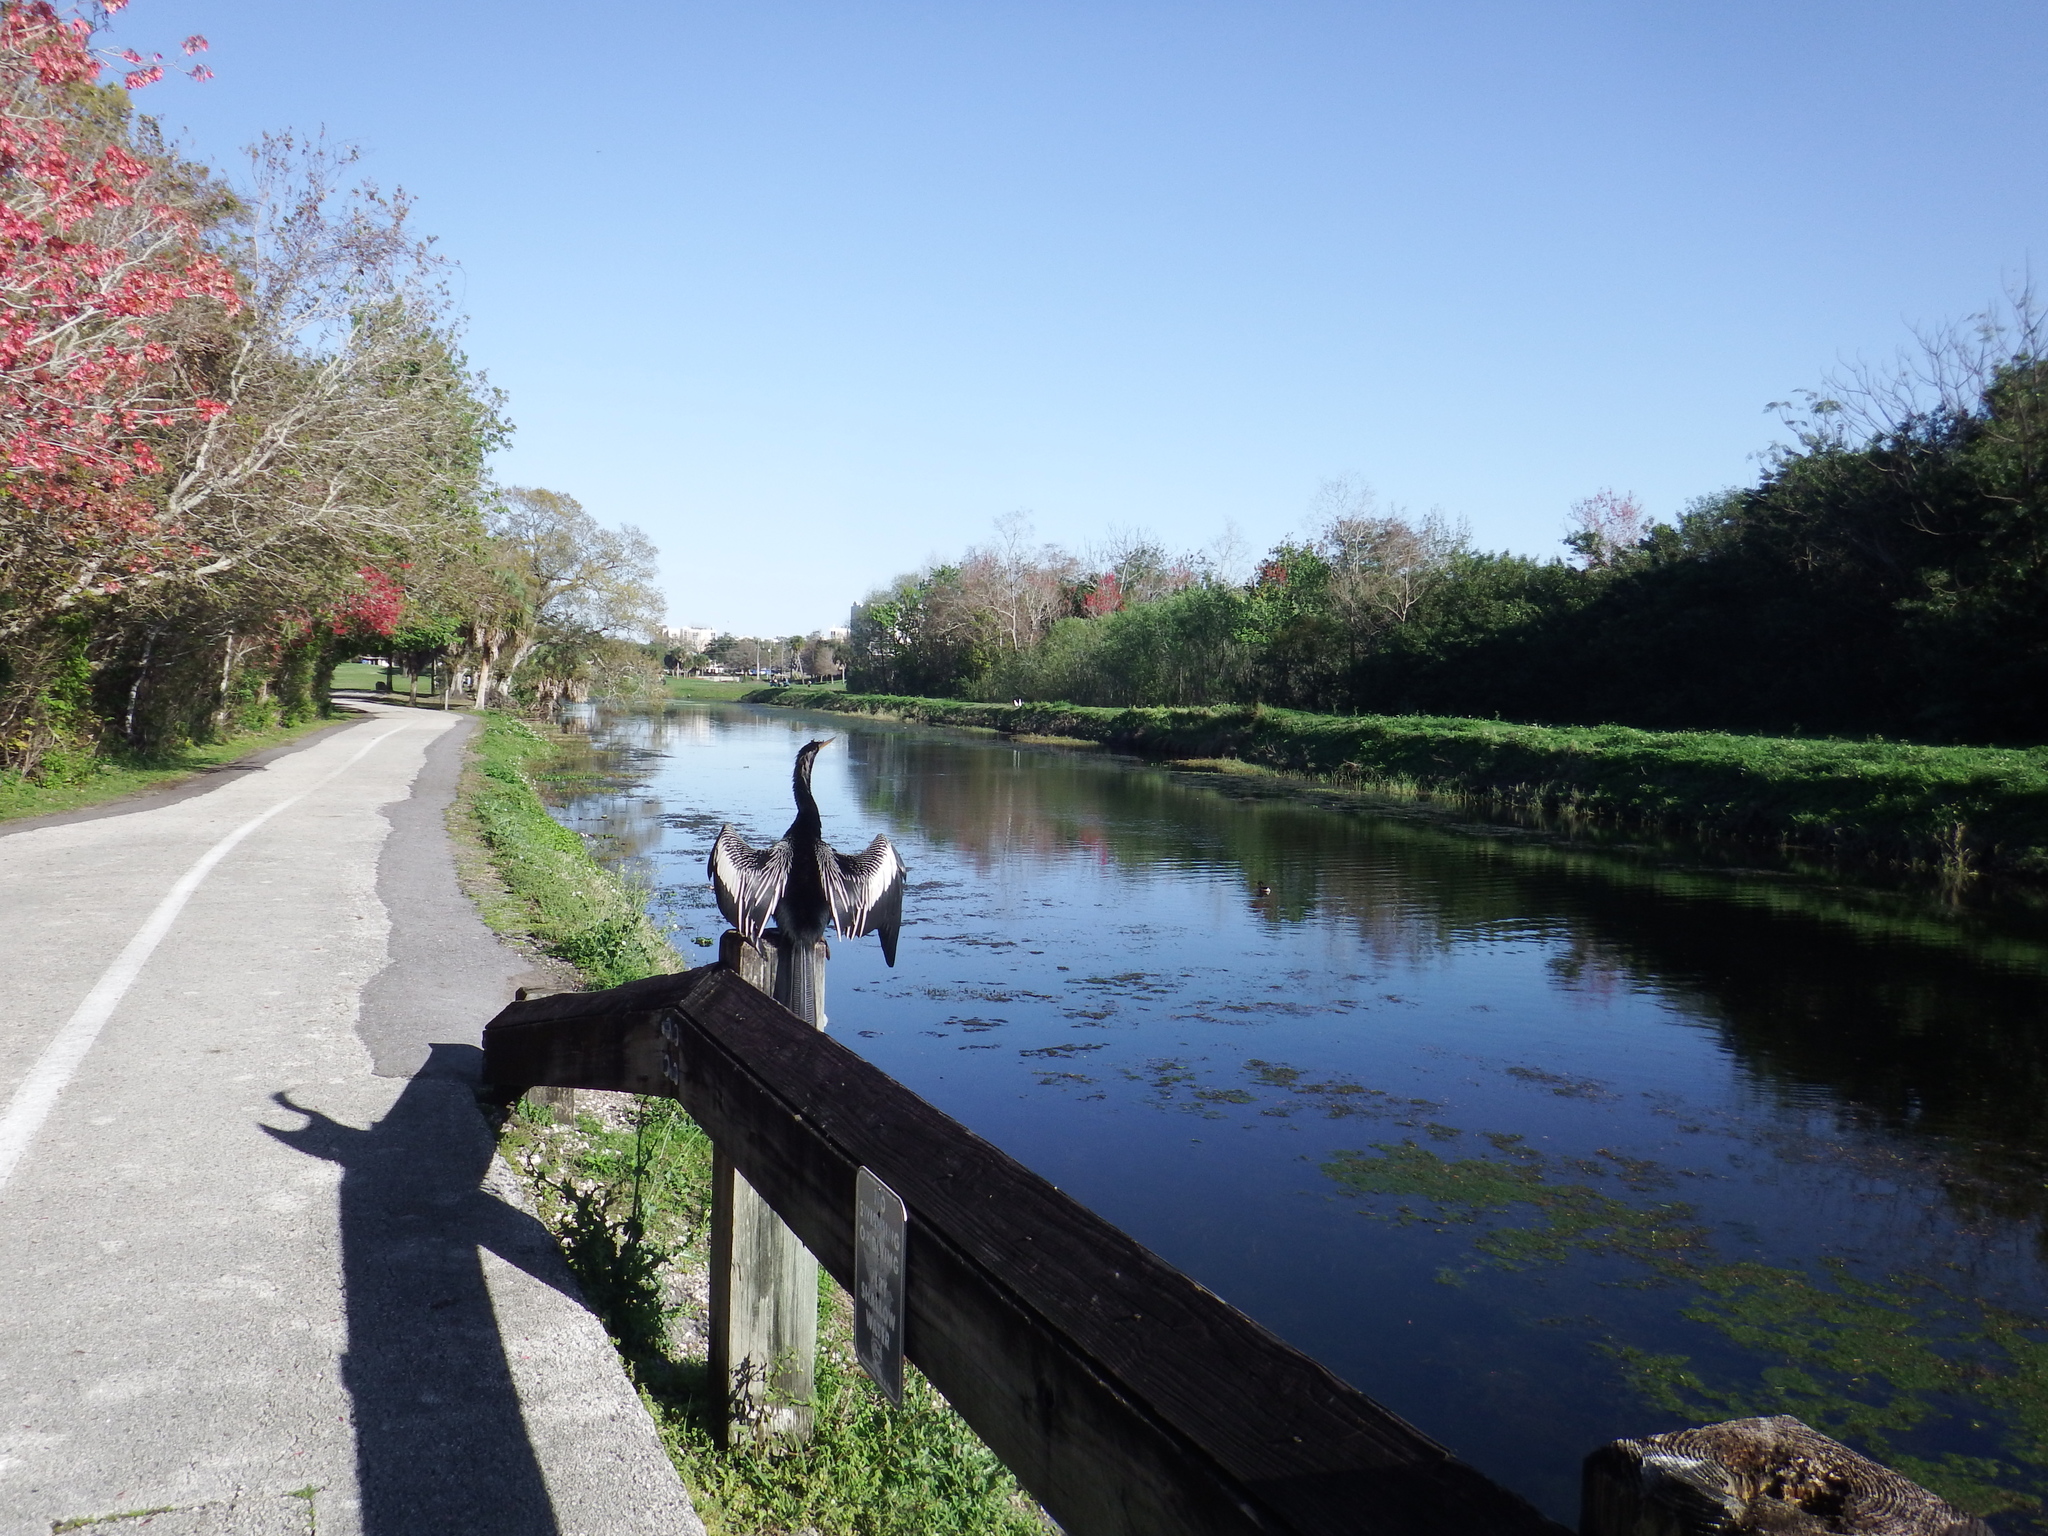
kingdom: Animalia
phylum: Chordata
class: Aves
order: Suliformes
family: Anhingidae
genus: Anhinga
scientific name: Anhinga anhinga
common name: Anhinga
